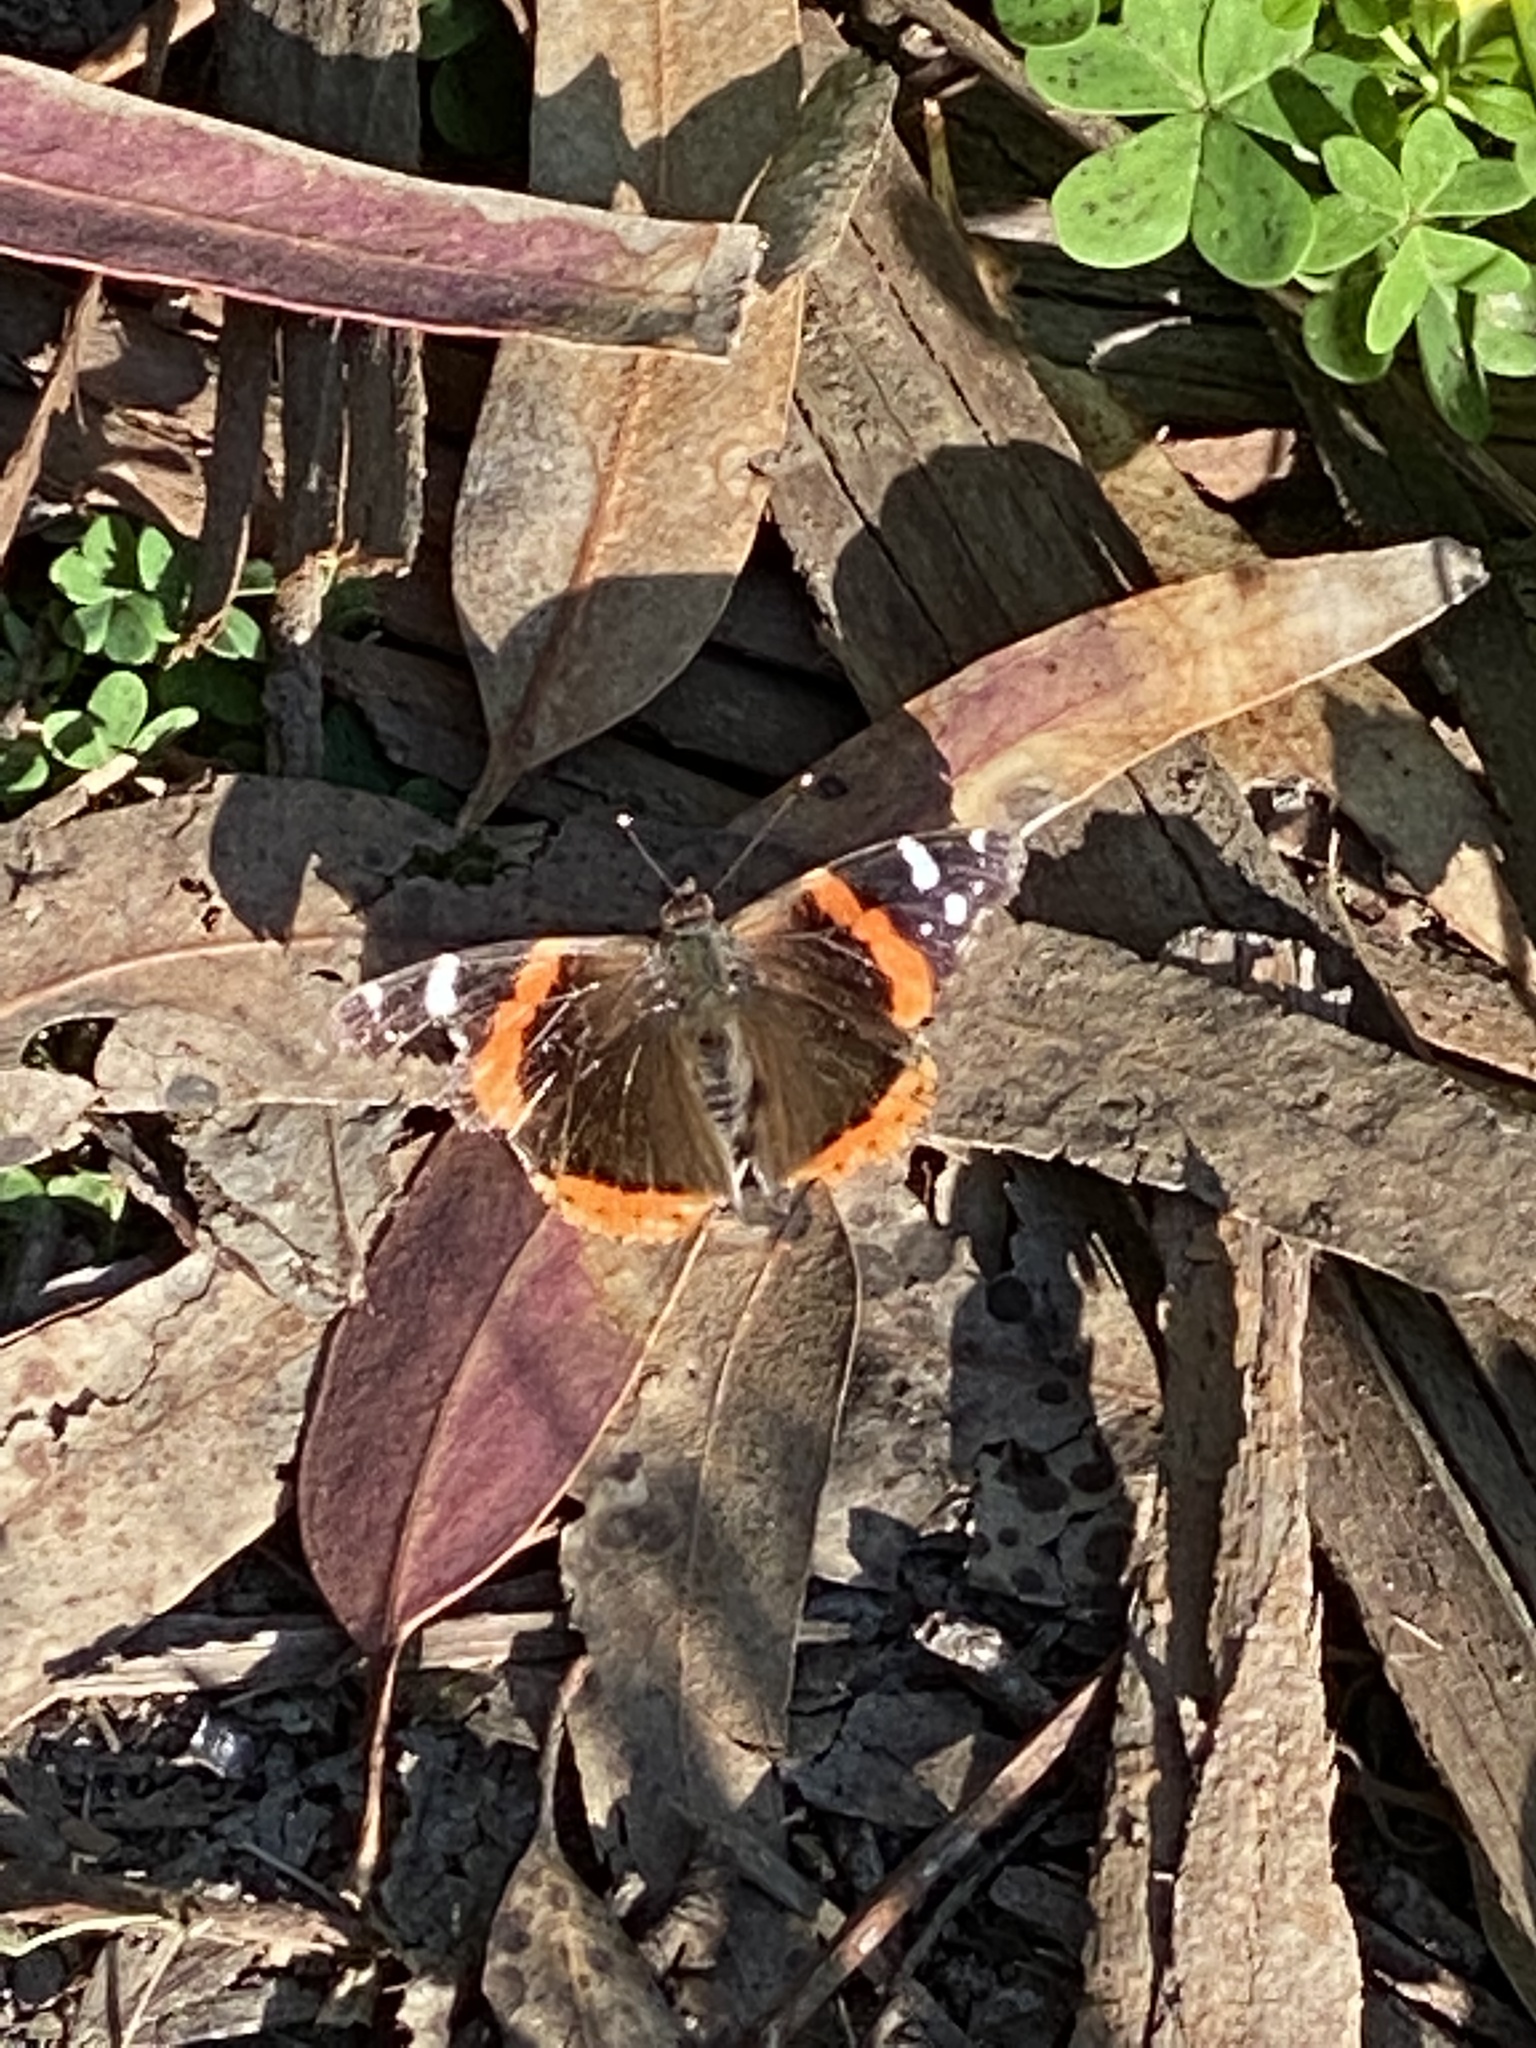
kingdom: Animalia
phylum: Arthropoda
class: Insecta
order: Lepidoptera
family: Nymphalidae
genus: Vanessa
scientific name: Vanessa atalanta
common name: Red admiral
